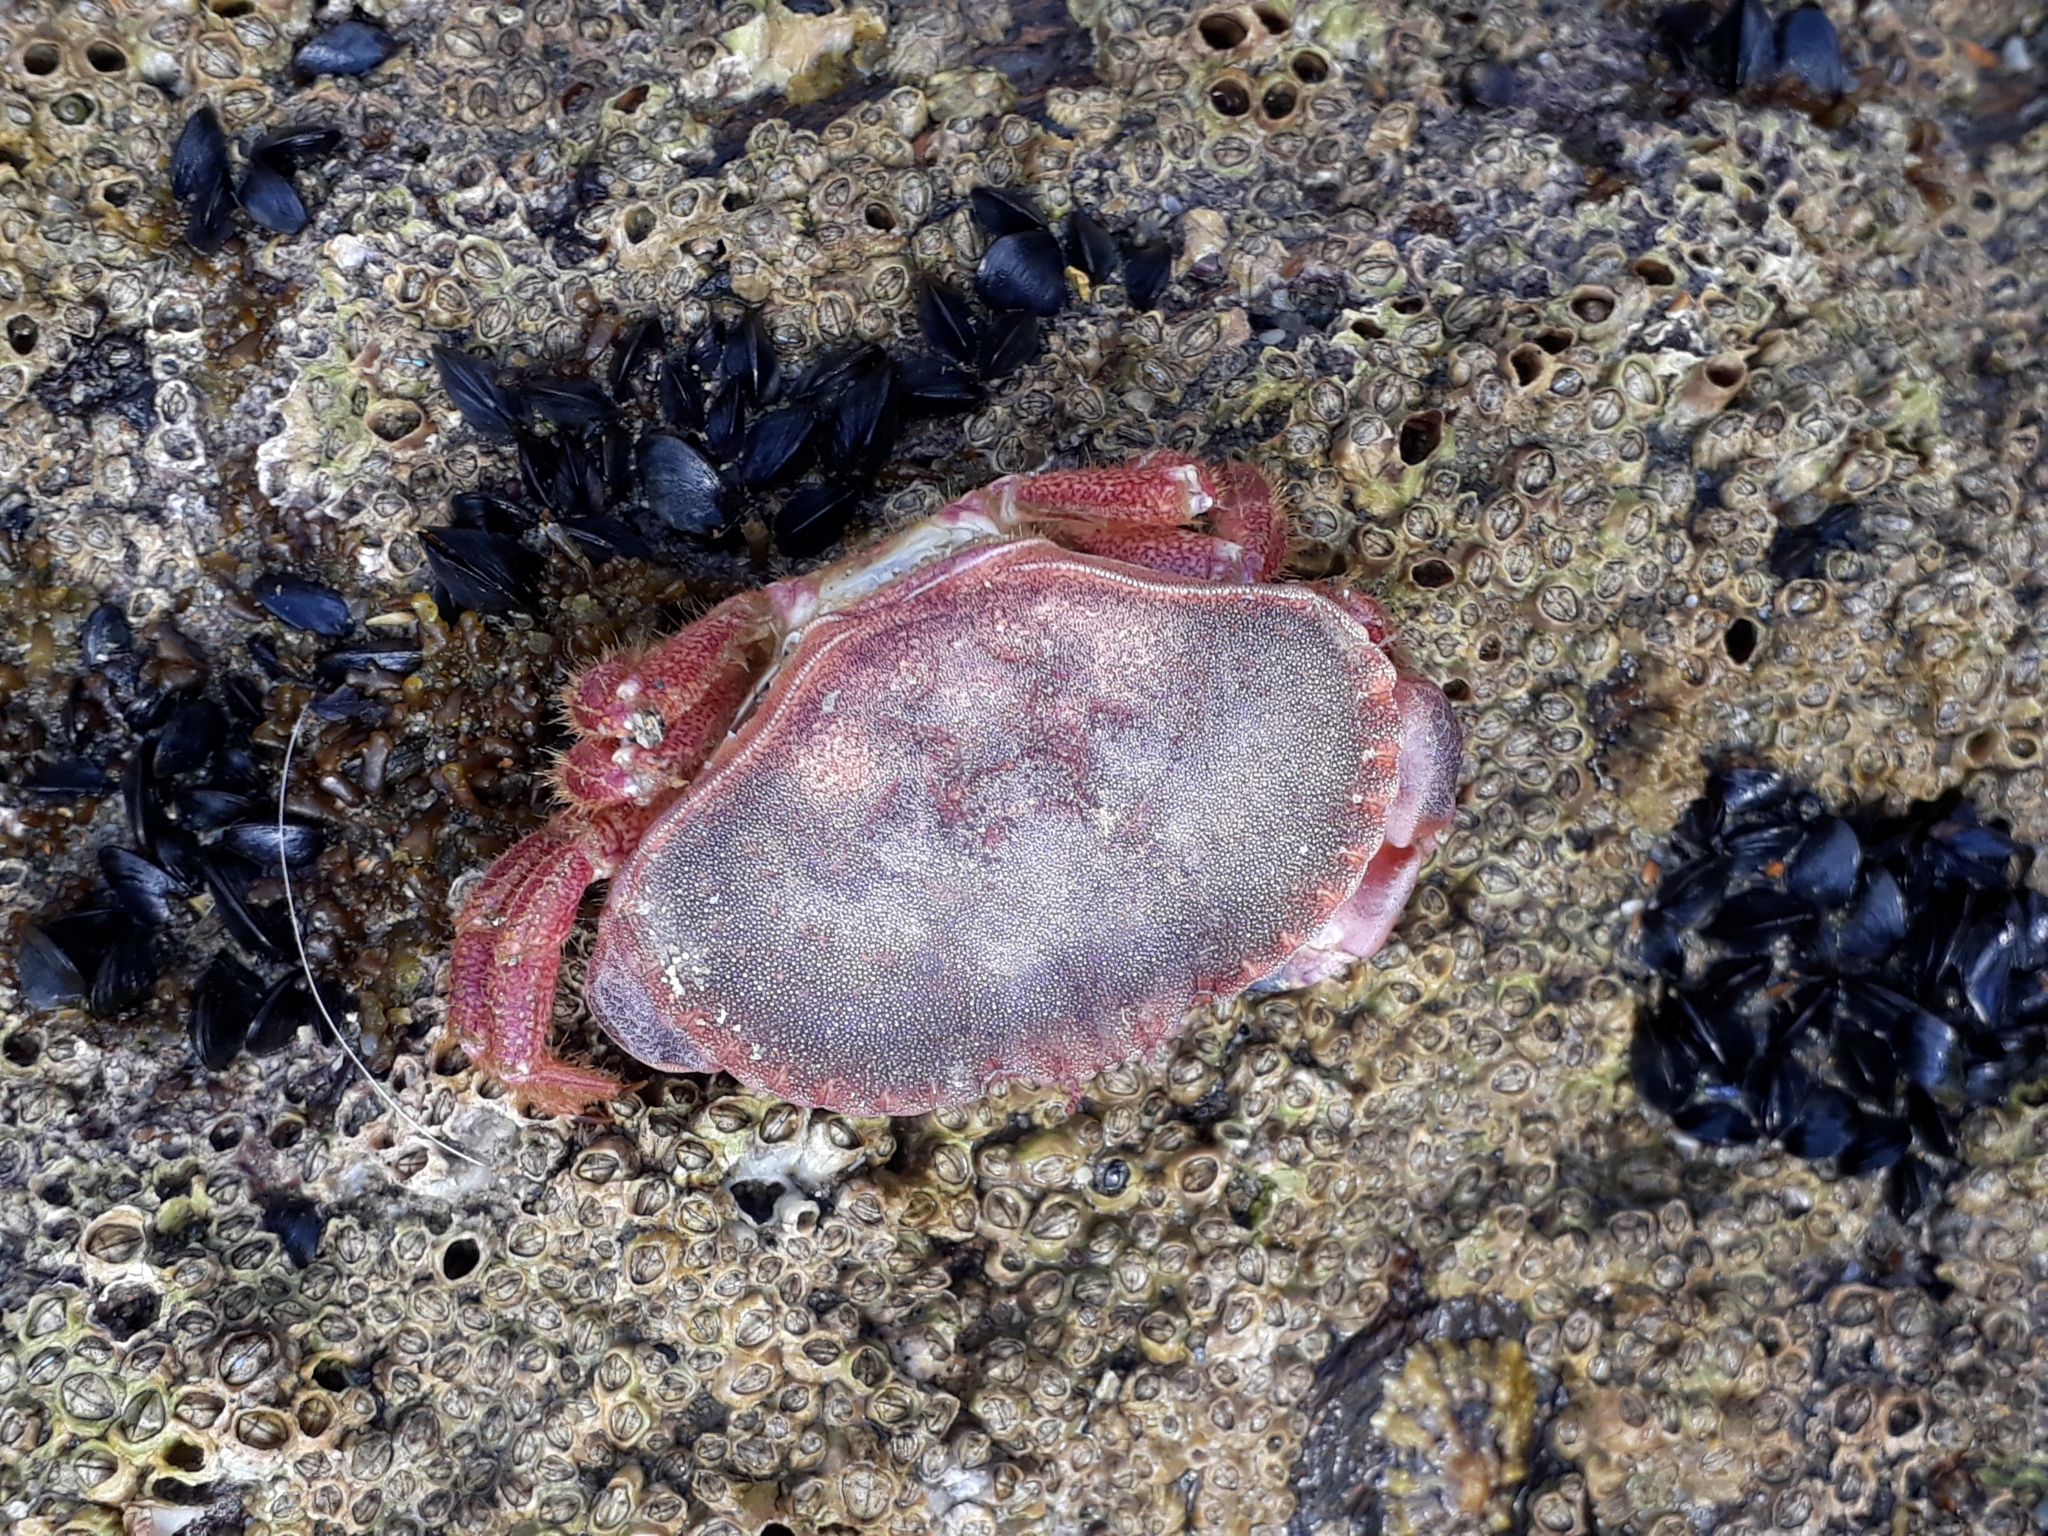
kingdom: Animalia
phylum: Arthropoda
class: Malacostraca
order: Decapoda
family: Cancridae
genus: Cancer
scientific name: Cancer pagurus
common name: Edible crab
